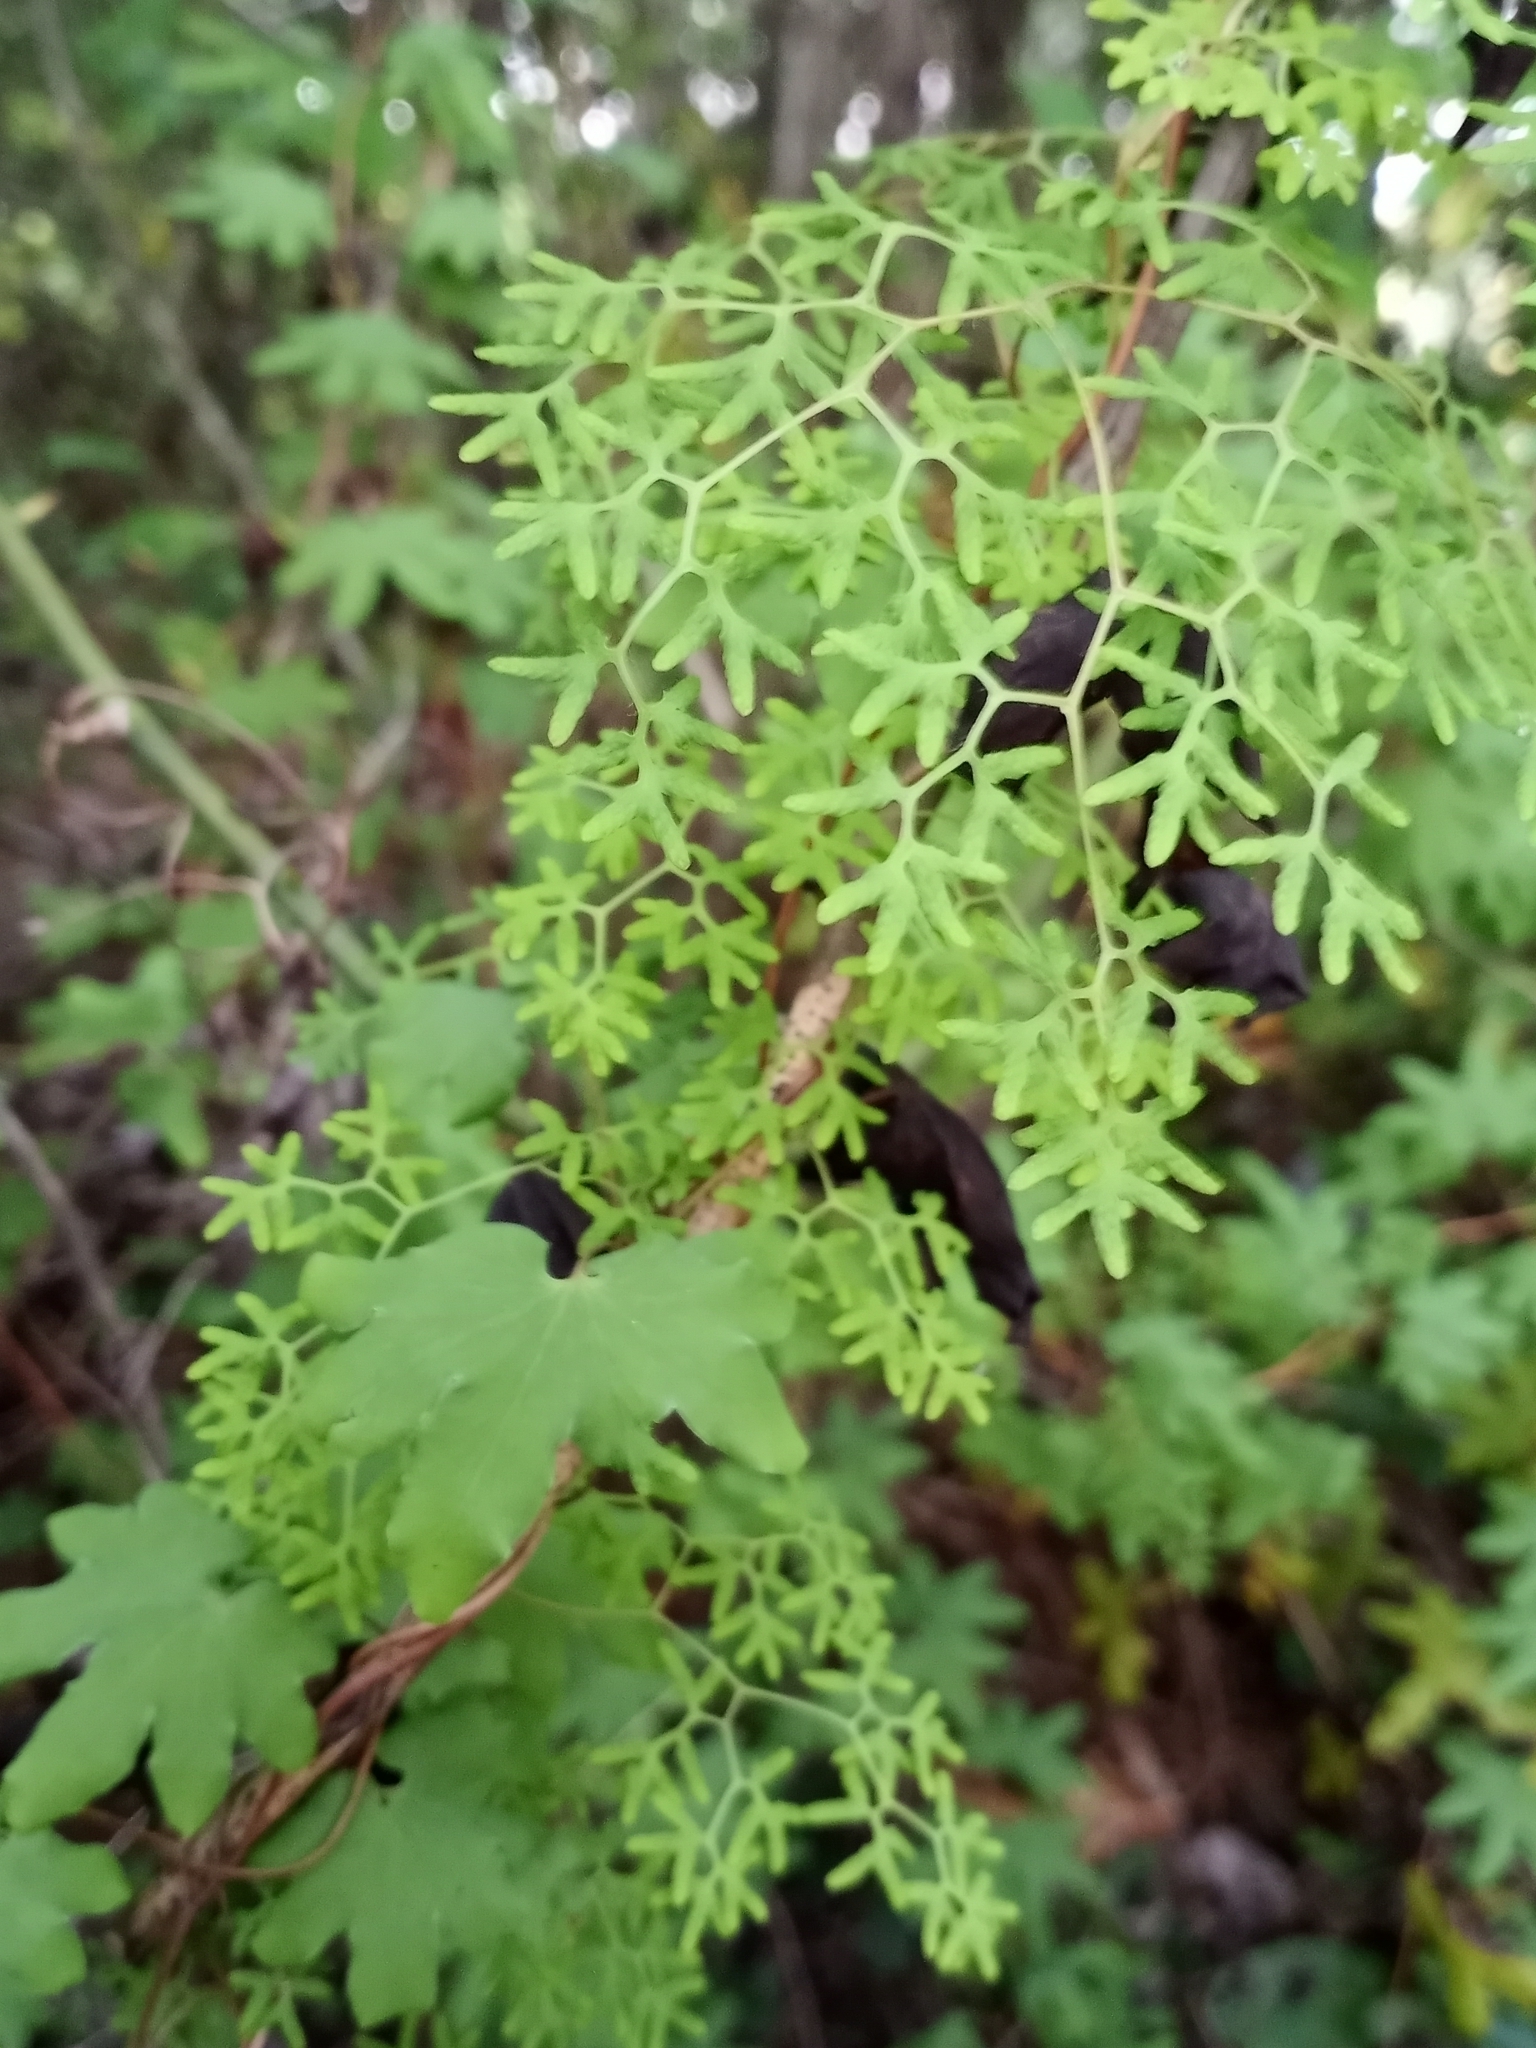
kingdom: Plantae
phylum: Tracheophyta
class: Polypodiopsida
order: Schizaeales
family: Lygodiaceae
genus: Lygodium
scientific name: Lygodium palmatum
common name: American climbing fern
